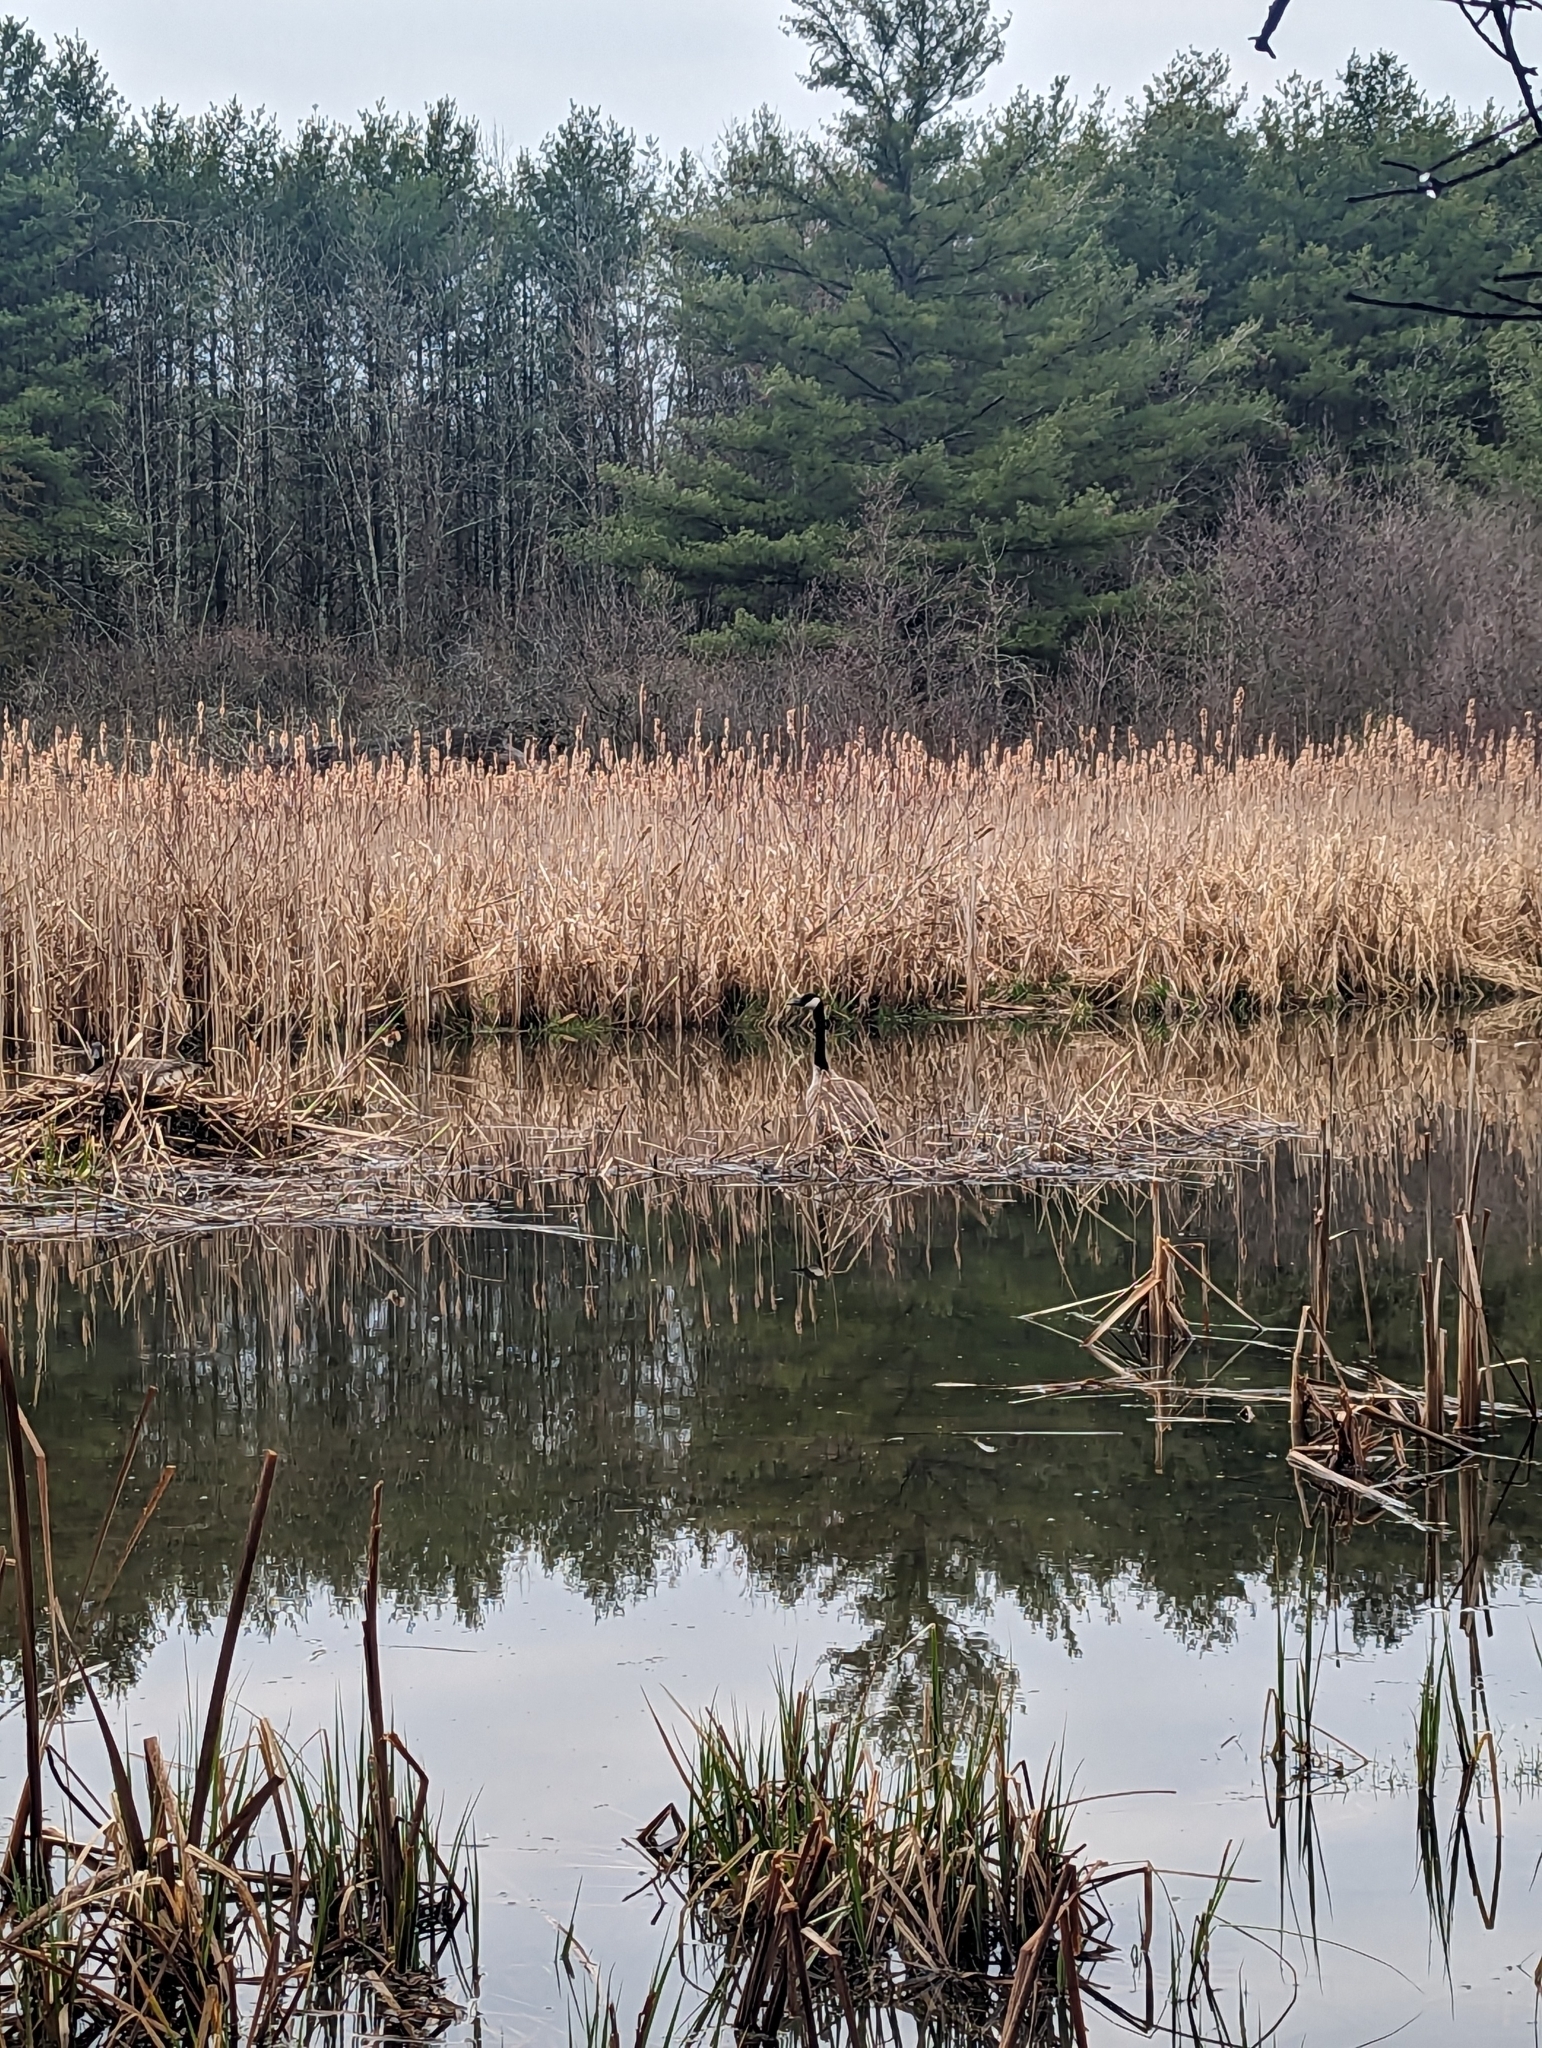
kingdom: Animalia
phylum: Chordata
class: Aves
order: Anseriformes
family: Anatidae
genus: Branta
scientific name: Branta canadensis
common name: Canada goose
